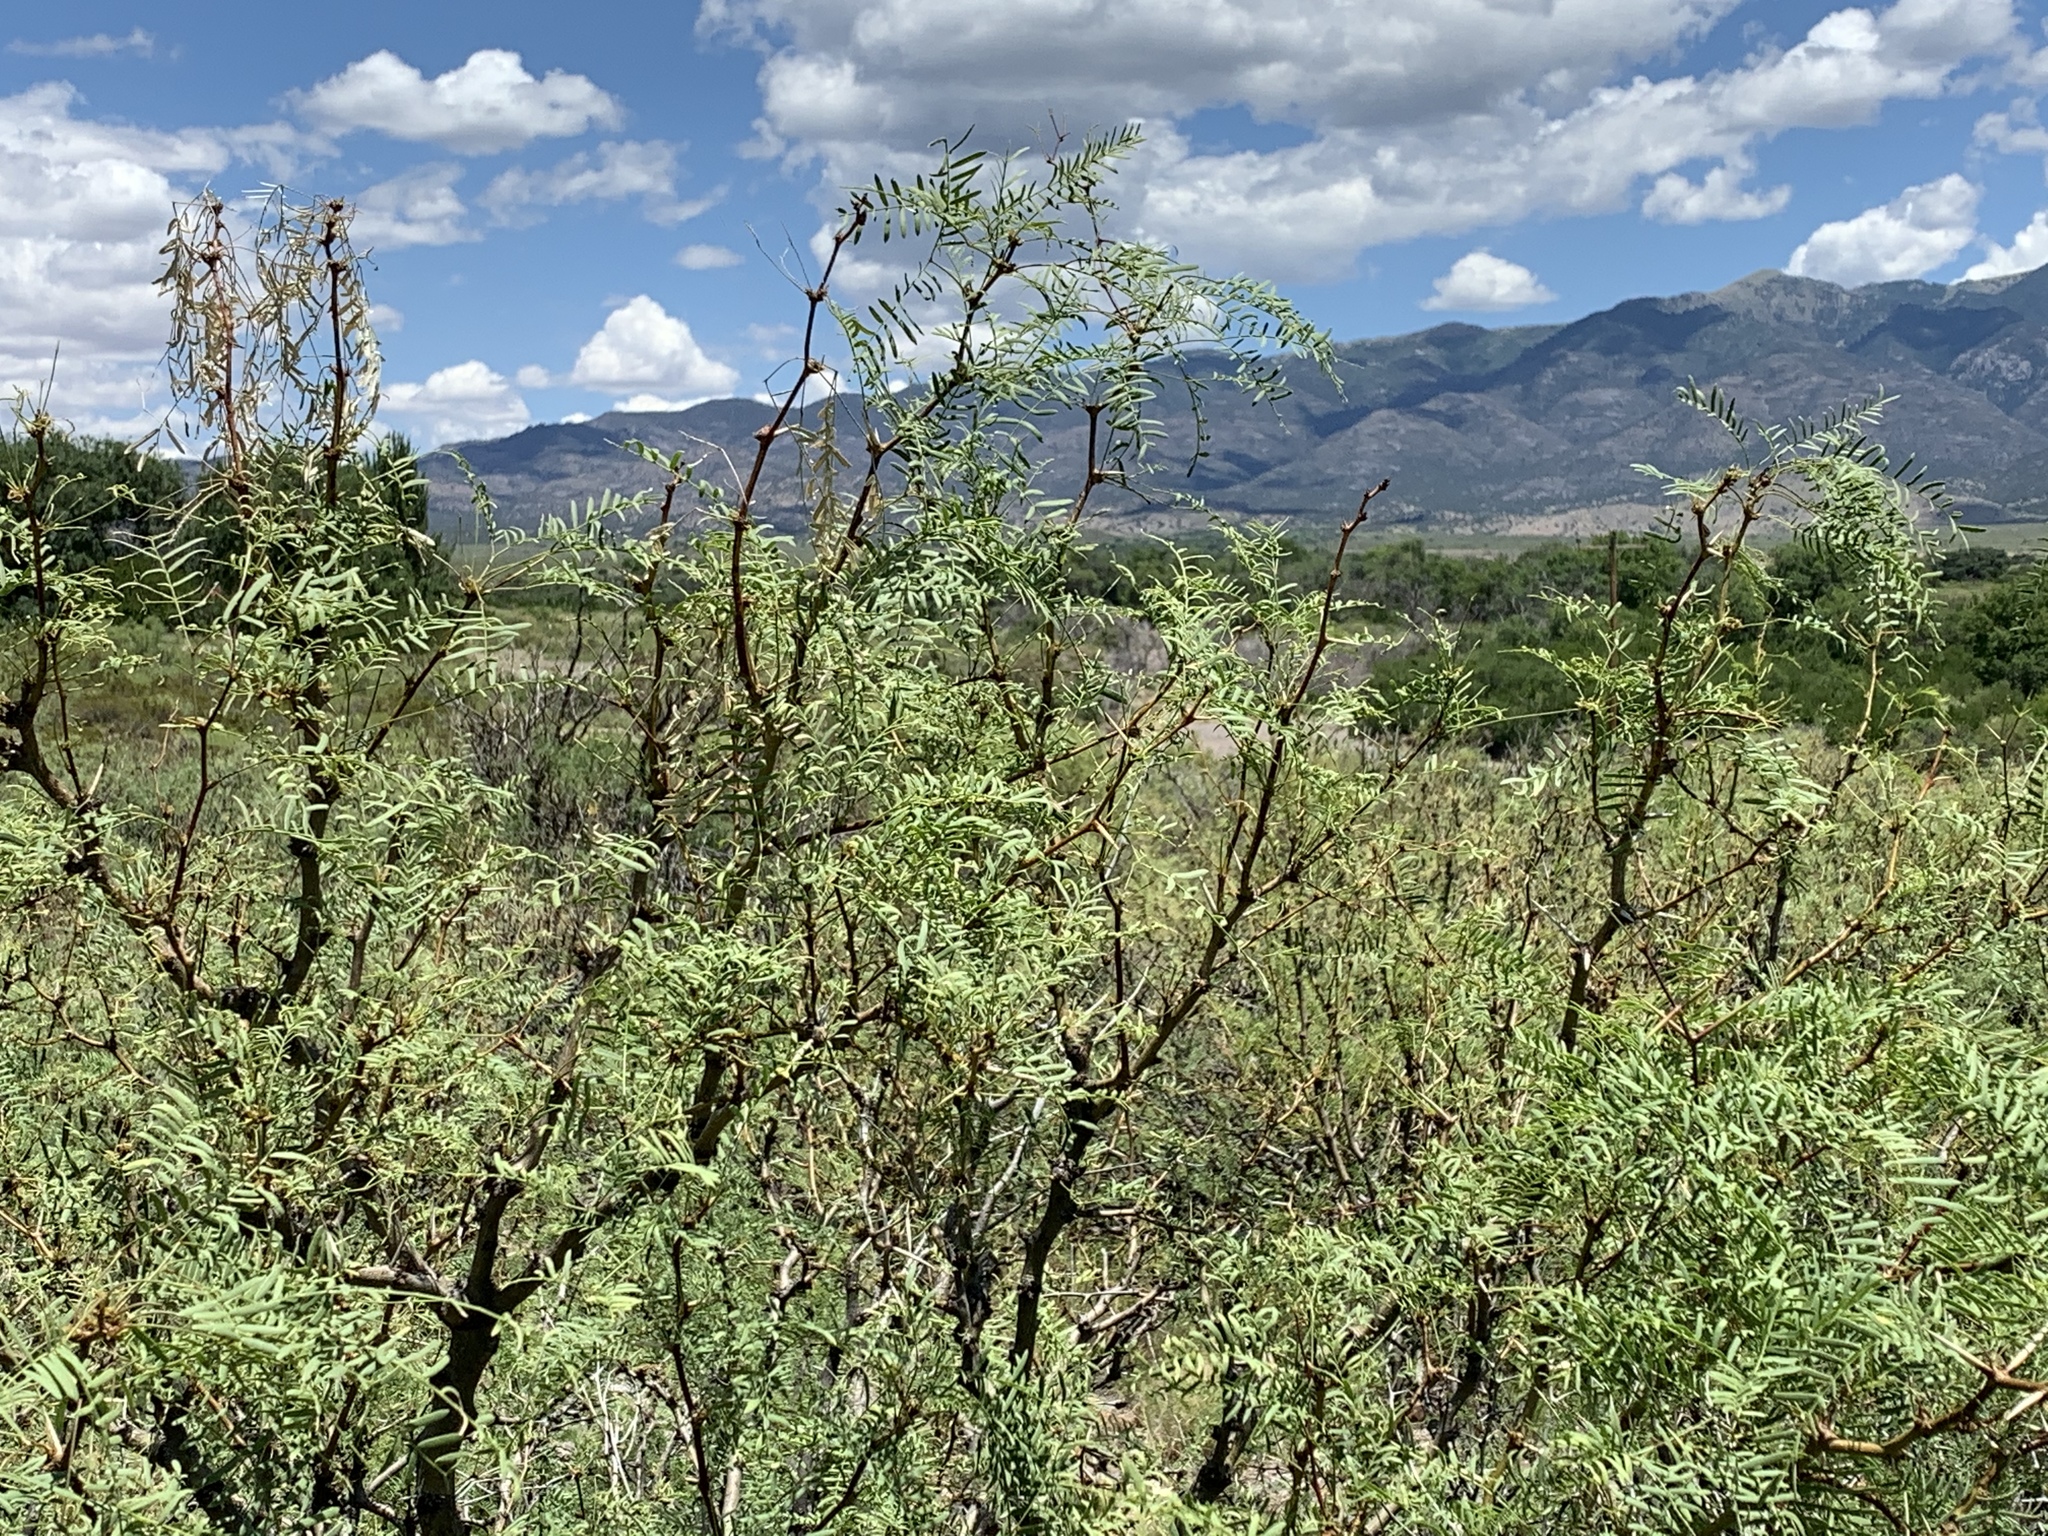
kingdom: Plantae
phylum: Tracheophyta
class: Magnoliopsida
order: Fabales
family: Fabaceae
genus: Prosopis
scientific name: Prosopis glandulosa
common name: Honey mesquite
